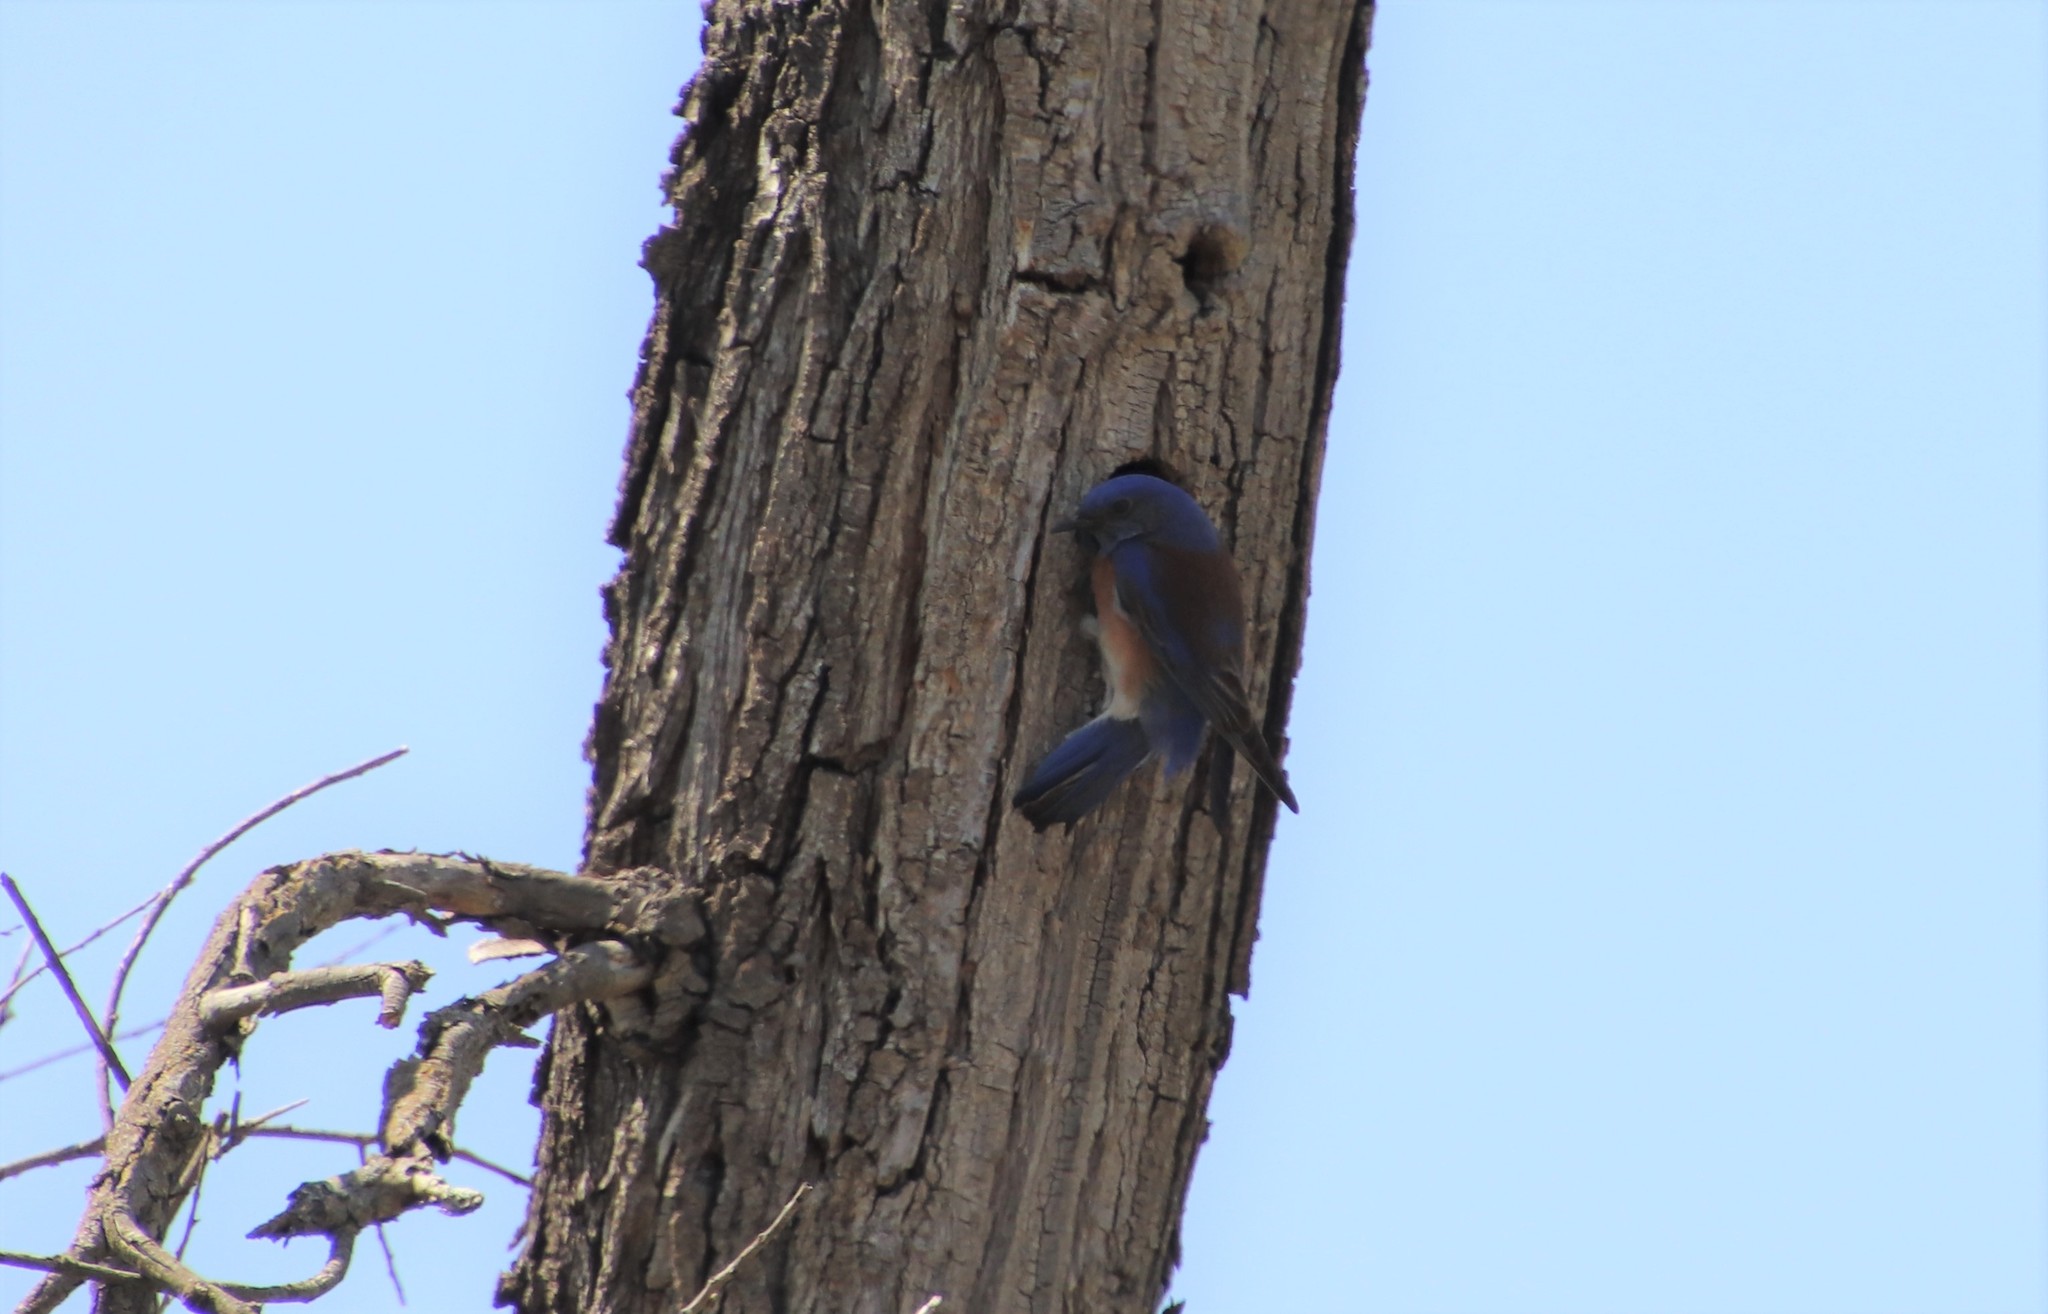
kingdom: Animalia
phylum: Chordata
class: Aves
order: Passeriformes
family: Turdidae
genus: Sialia
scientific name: Sialia mexicana
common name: Western bluebird
